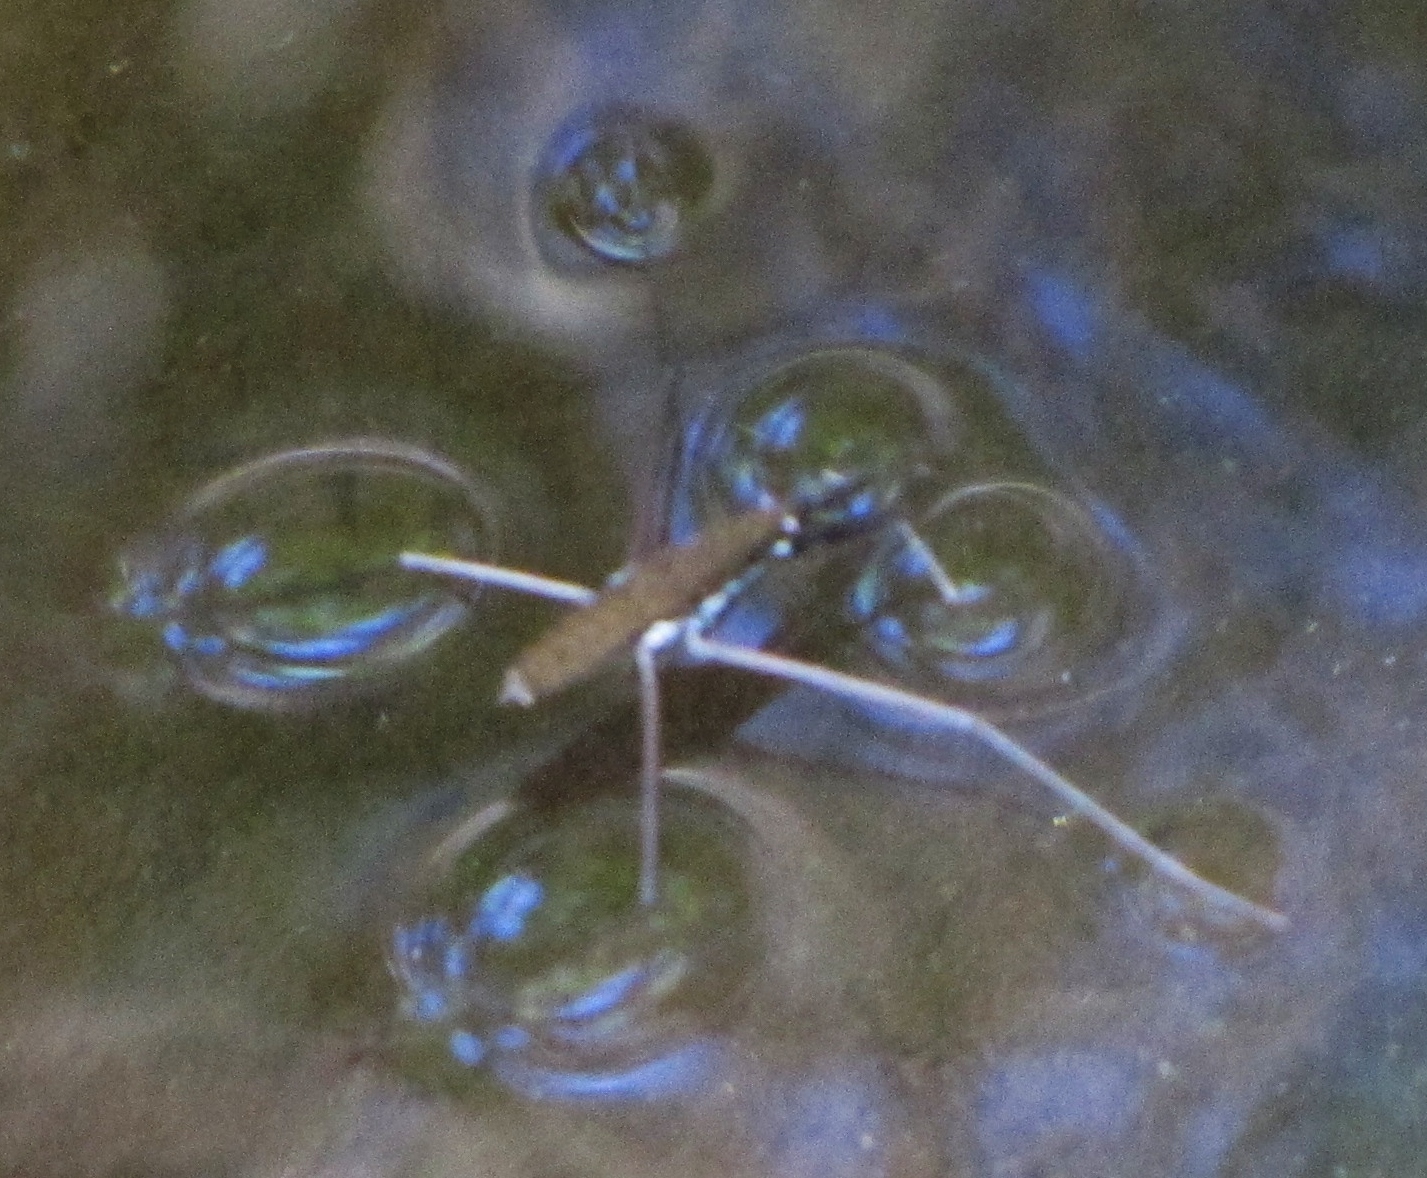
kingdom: Animalia
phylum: Arthropoda
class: Insecta
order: Hemiptera
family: Gerridae
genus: Aquarius
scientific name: Aquarius
